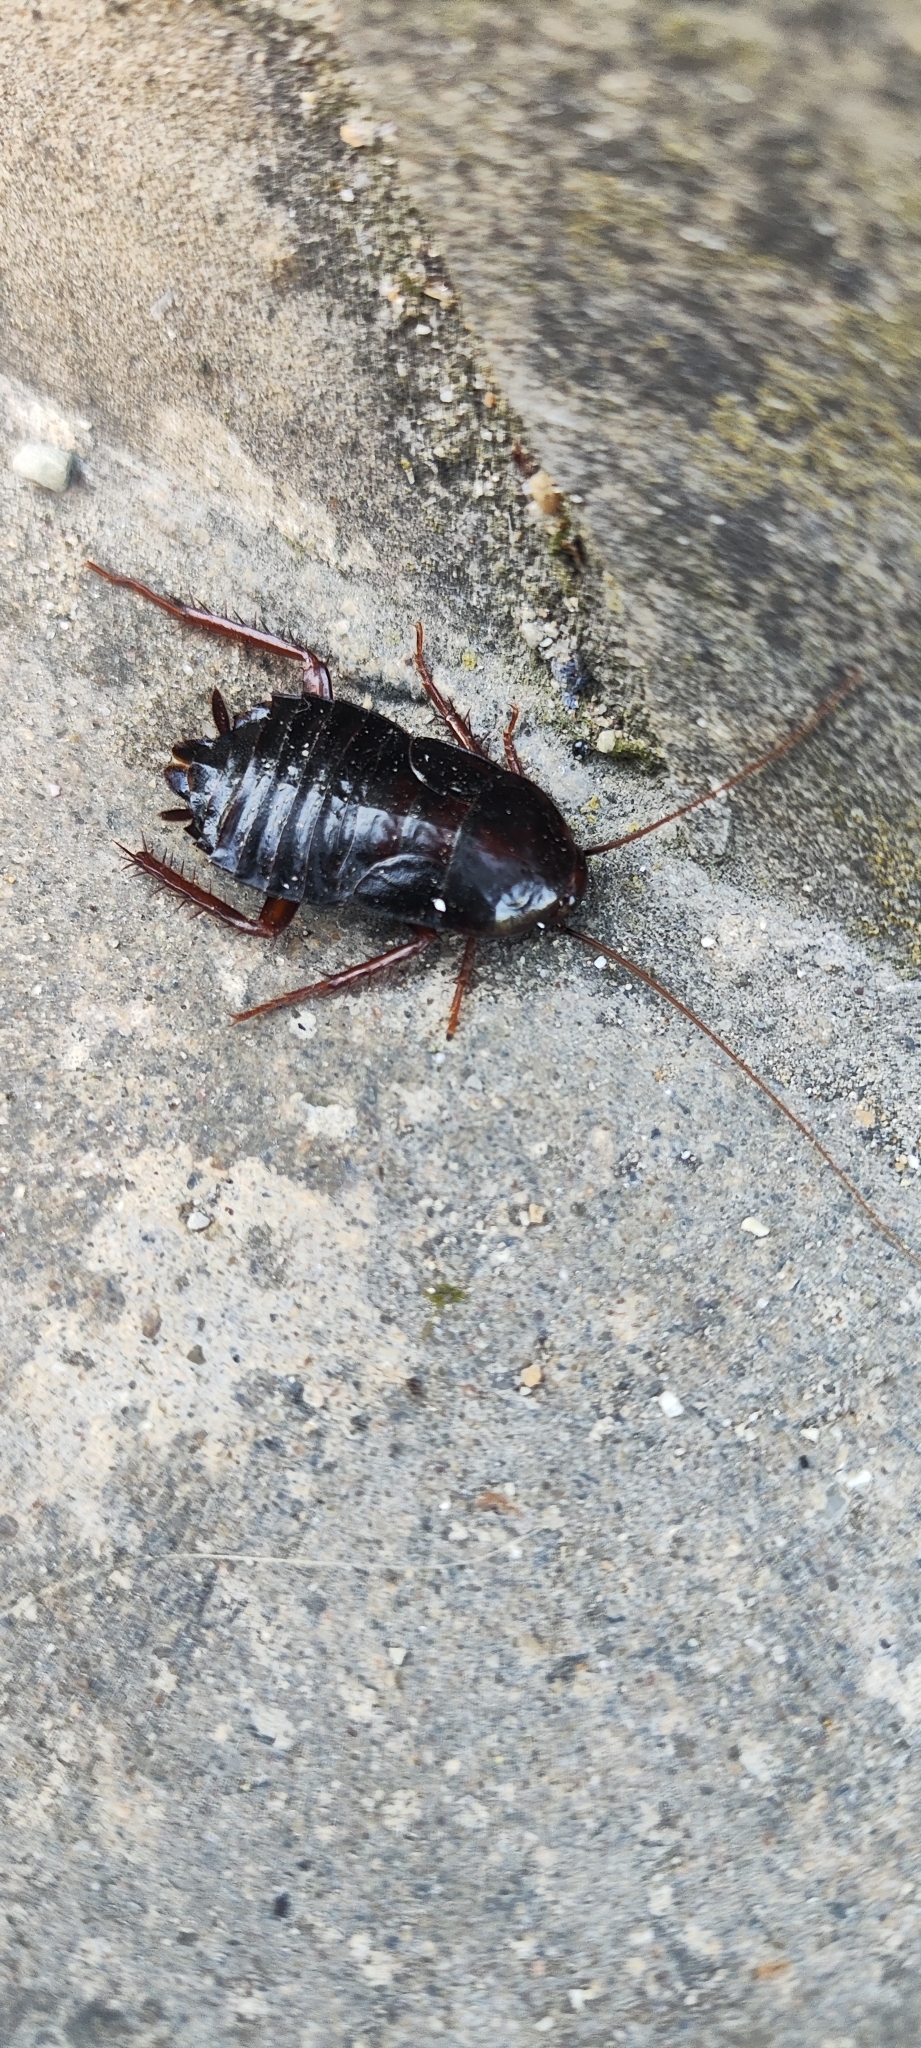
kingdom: Animalia
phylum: Arthropoda
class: Insecta
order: Blattodea
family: Blattidae
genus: Blatta
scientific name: Blatta orientalis
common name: Oriental cockroach
